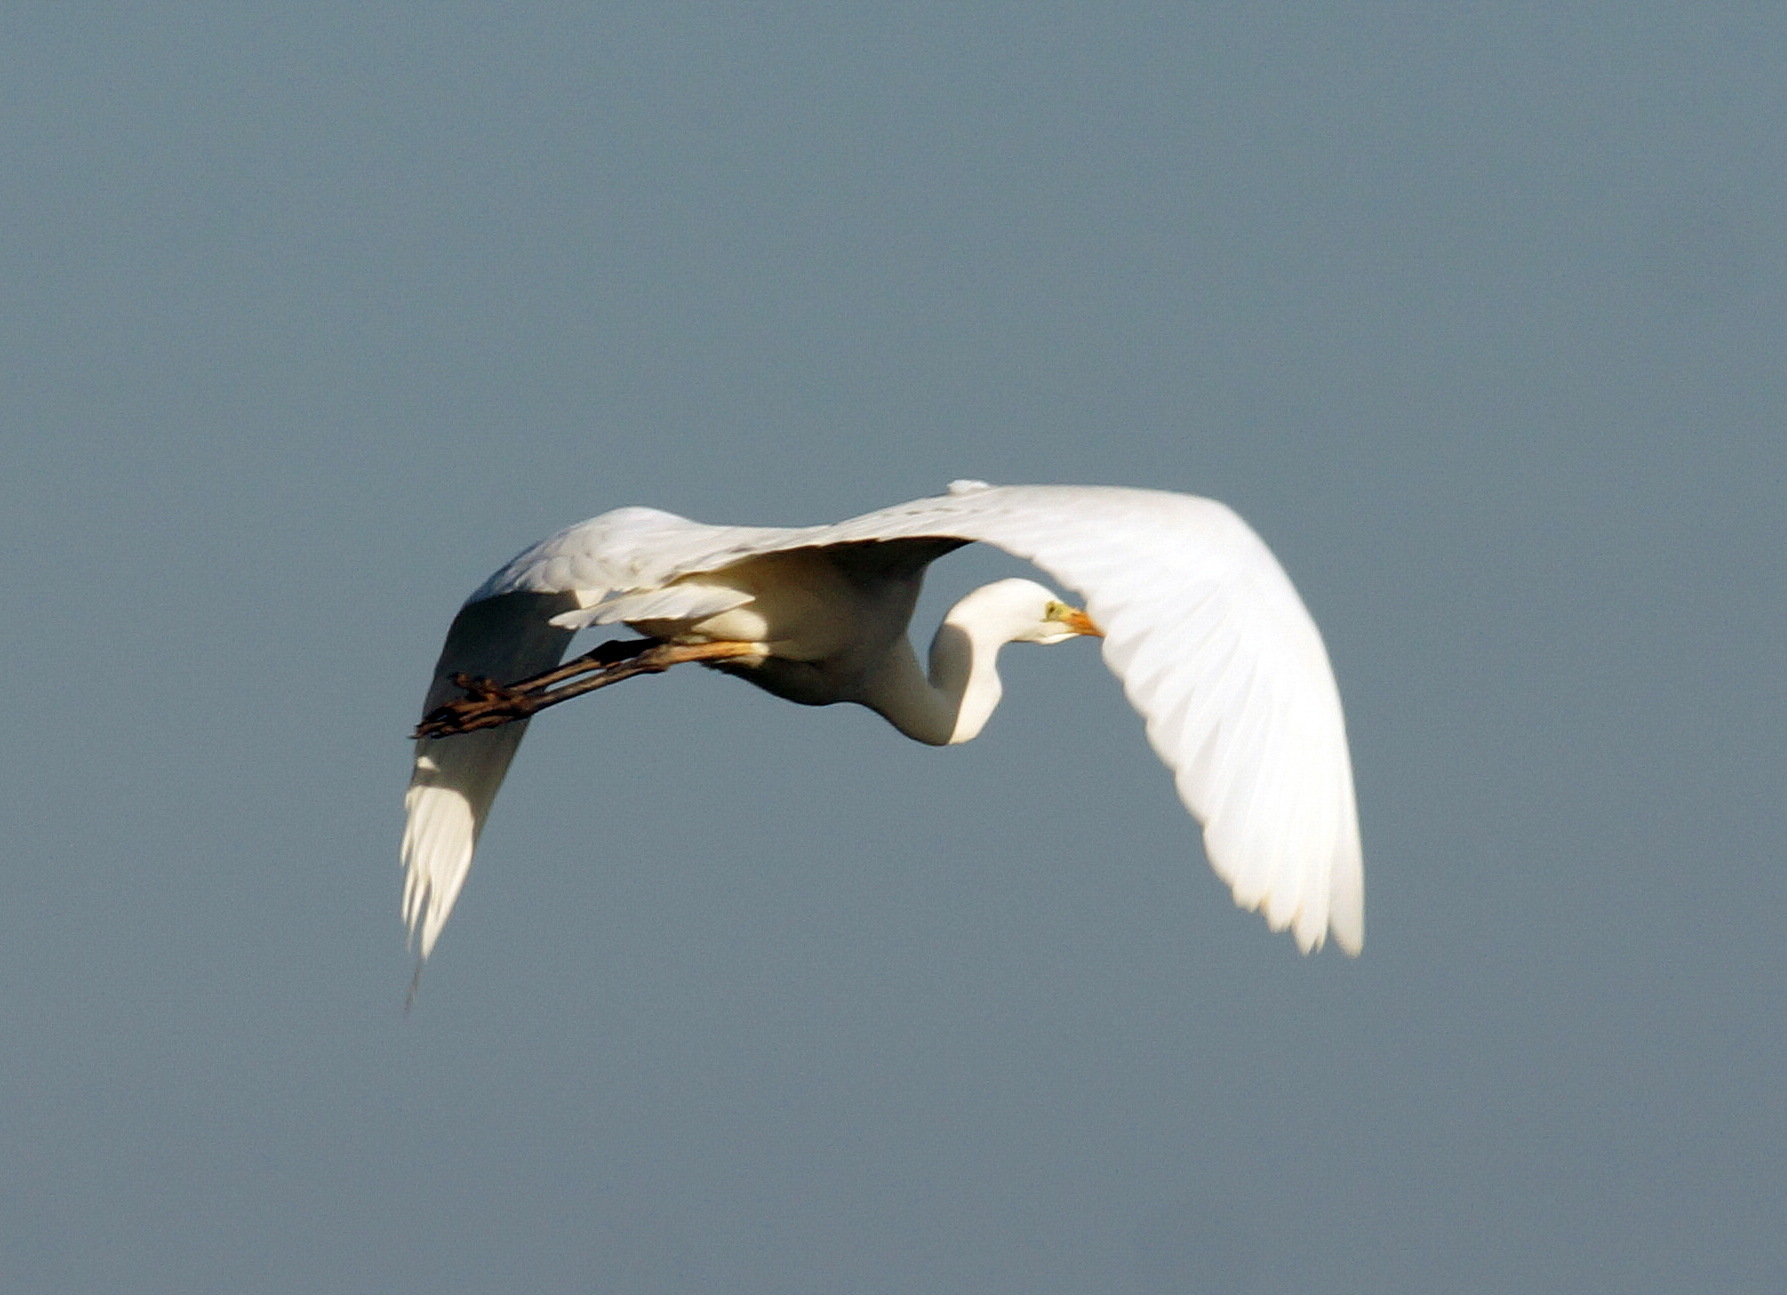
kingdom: Animalia
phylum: Chordata
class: Aves
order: Pelecaniformes
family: Ardeidae
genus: Ardea
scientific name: Ardea alba
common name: Great egret
